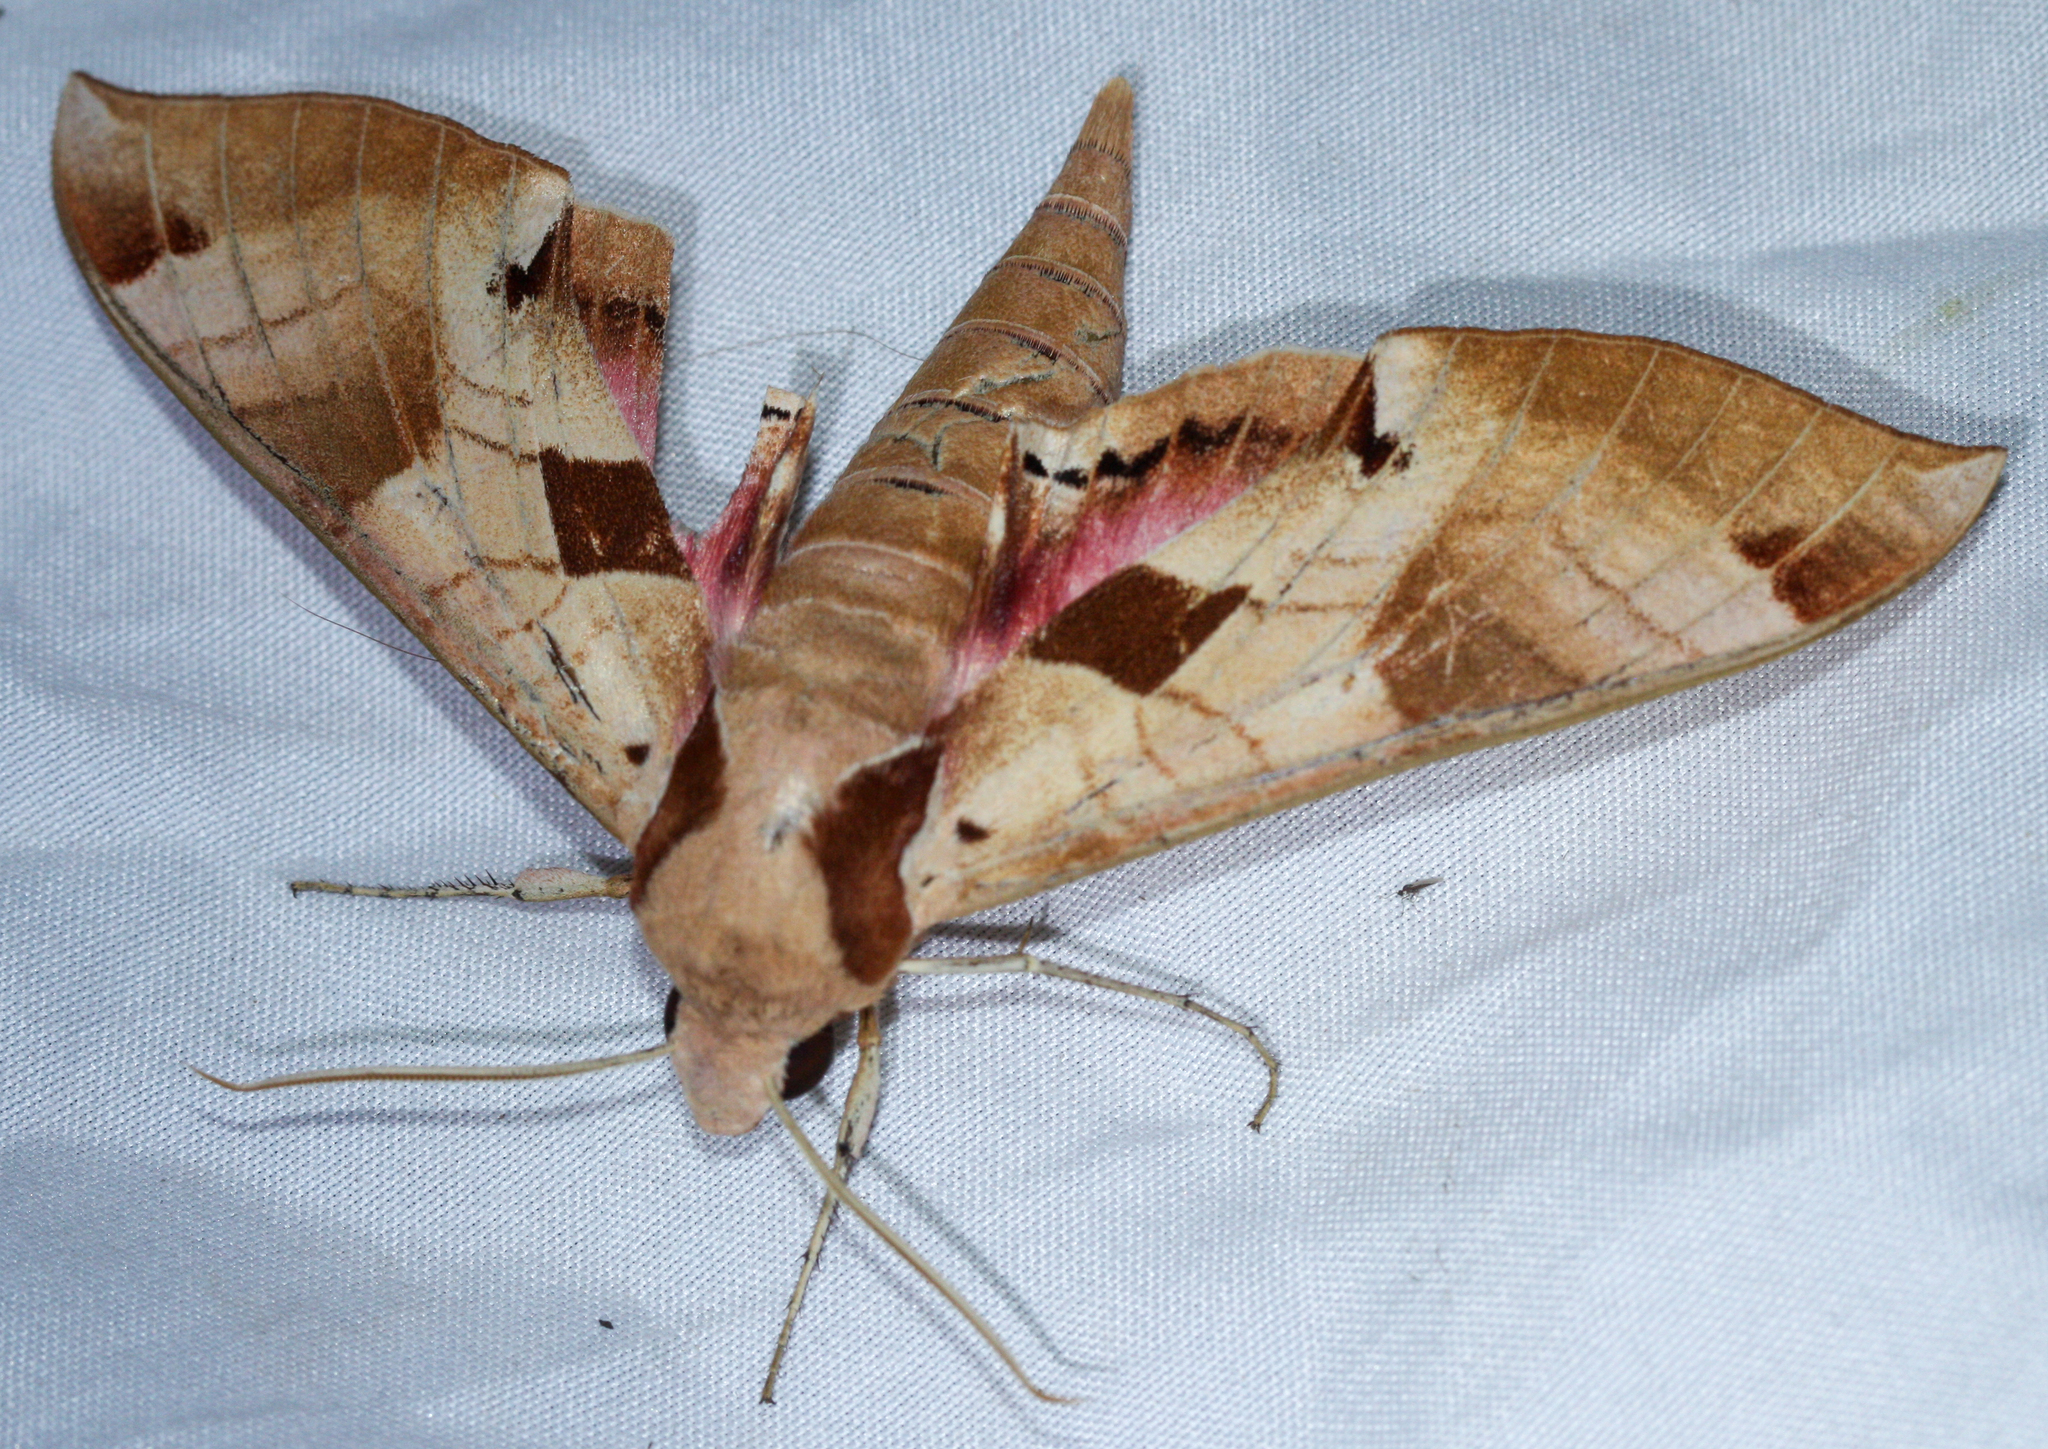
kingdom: Animalia
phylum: Arthropoda
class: Insecta
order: Lepidoptera
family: Sphingidae
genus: Eumorpha
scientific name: Eumorpha achemon
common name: Achemon sphinx
